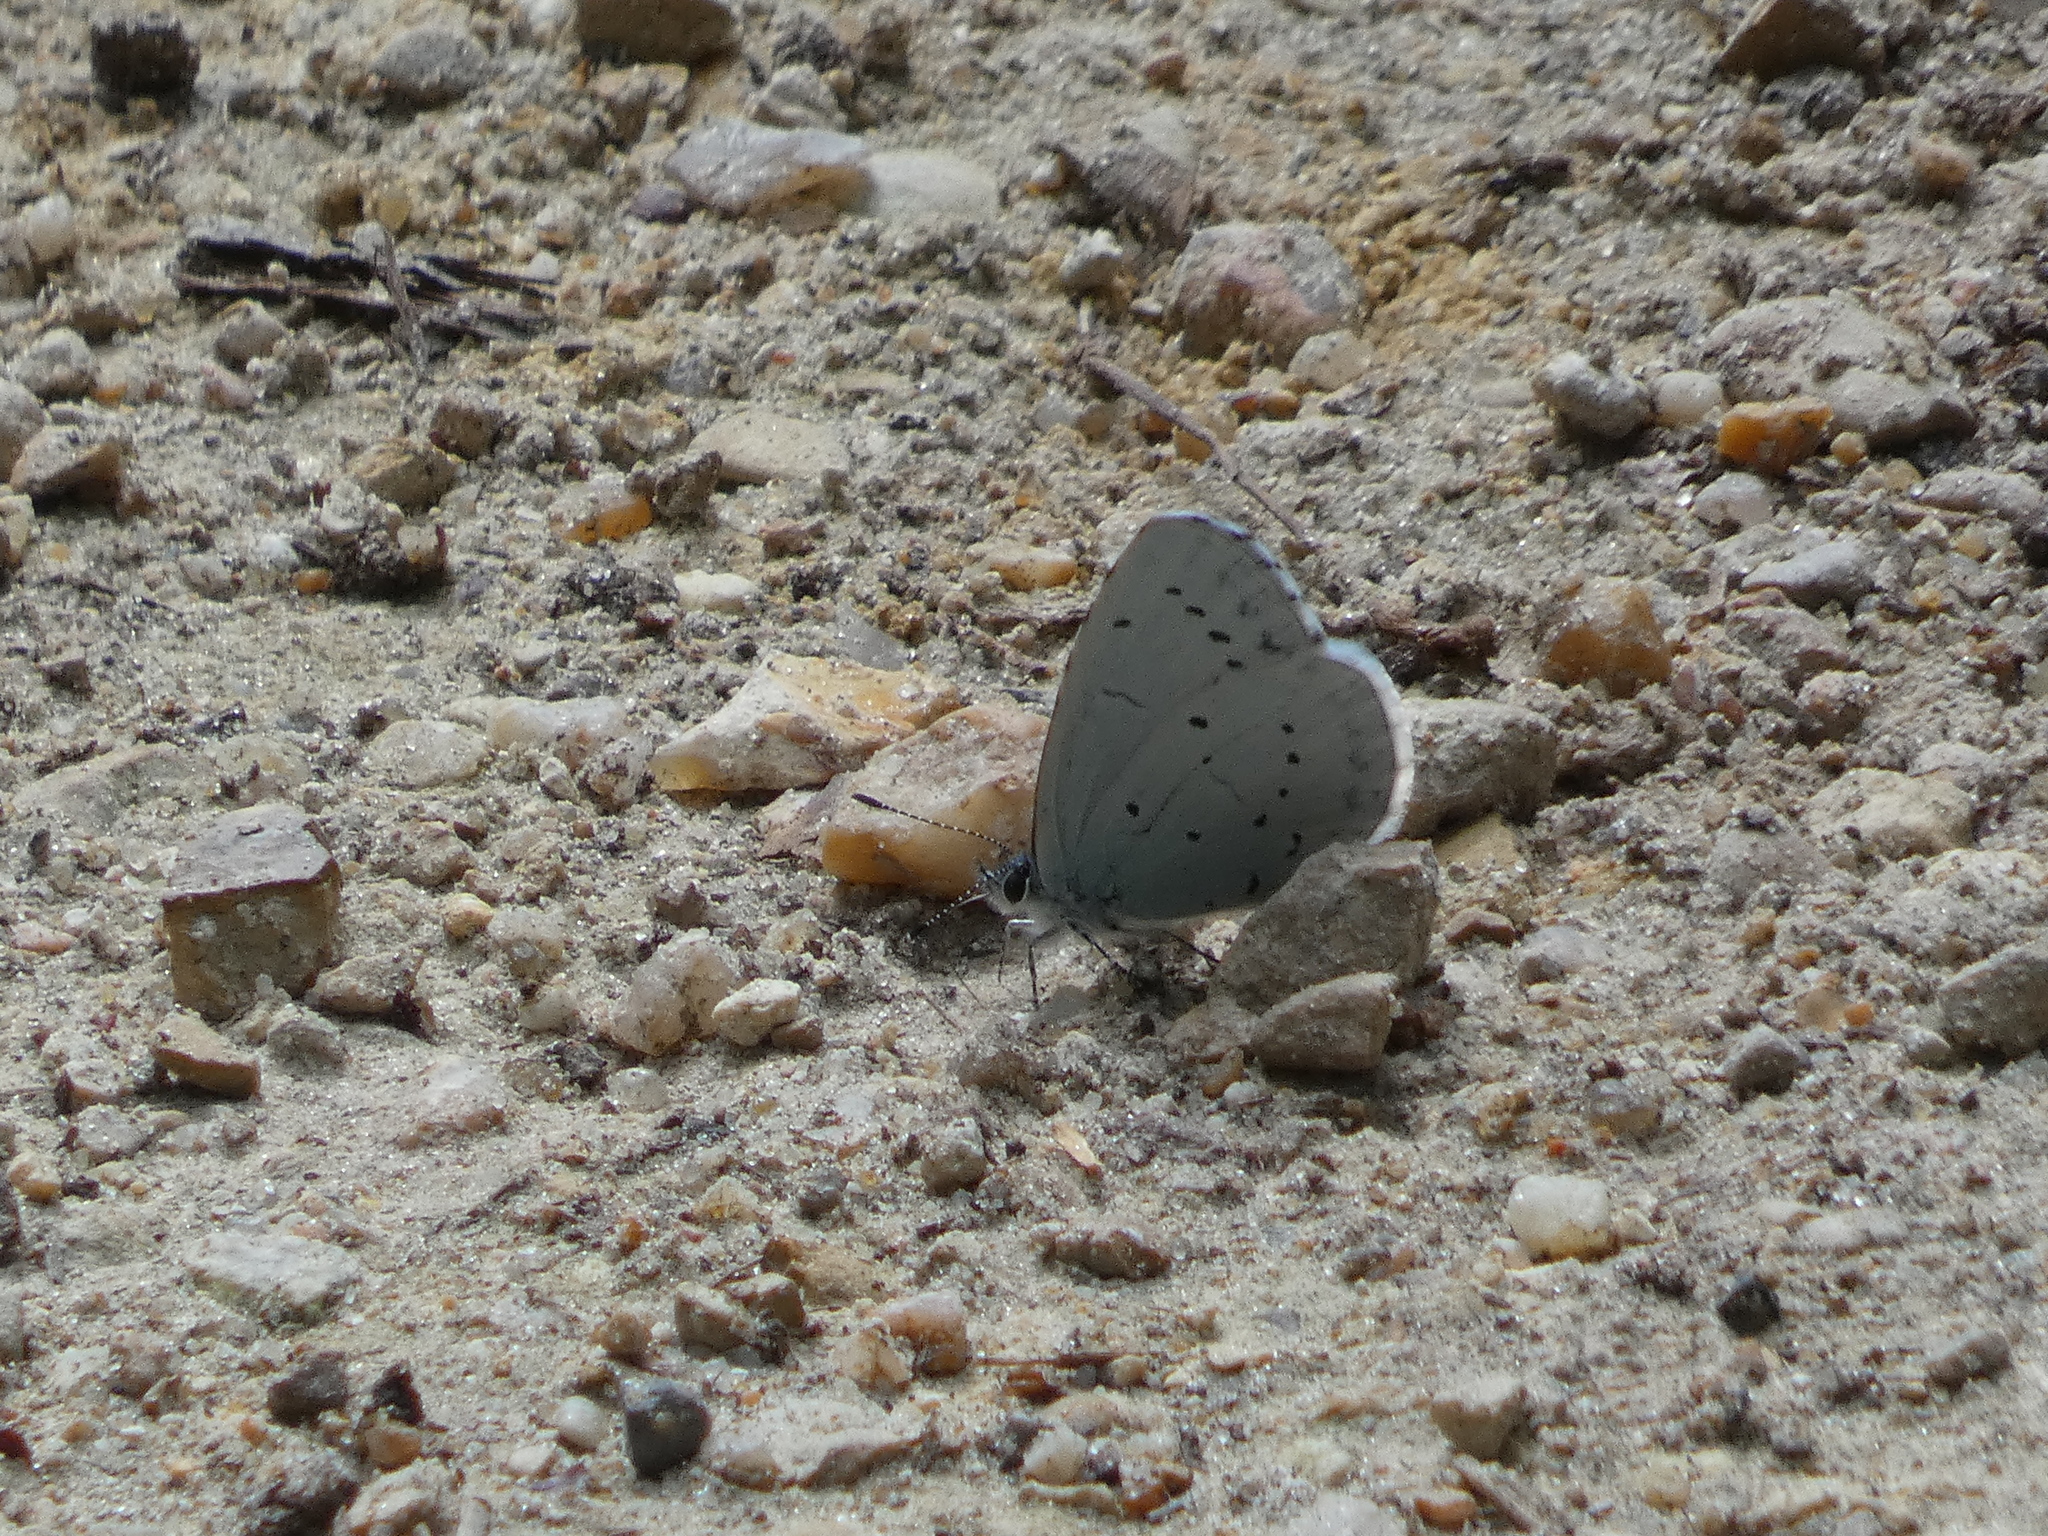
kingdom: Animalia
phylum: Arthropoda
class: Insecta
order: Lepidoptera
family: Lycaenidae
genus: Celastrina
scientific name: Celastrina argiolus
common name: Holly blue
